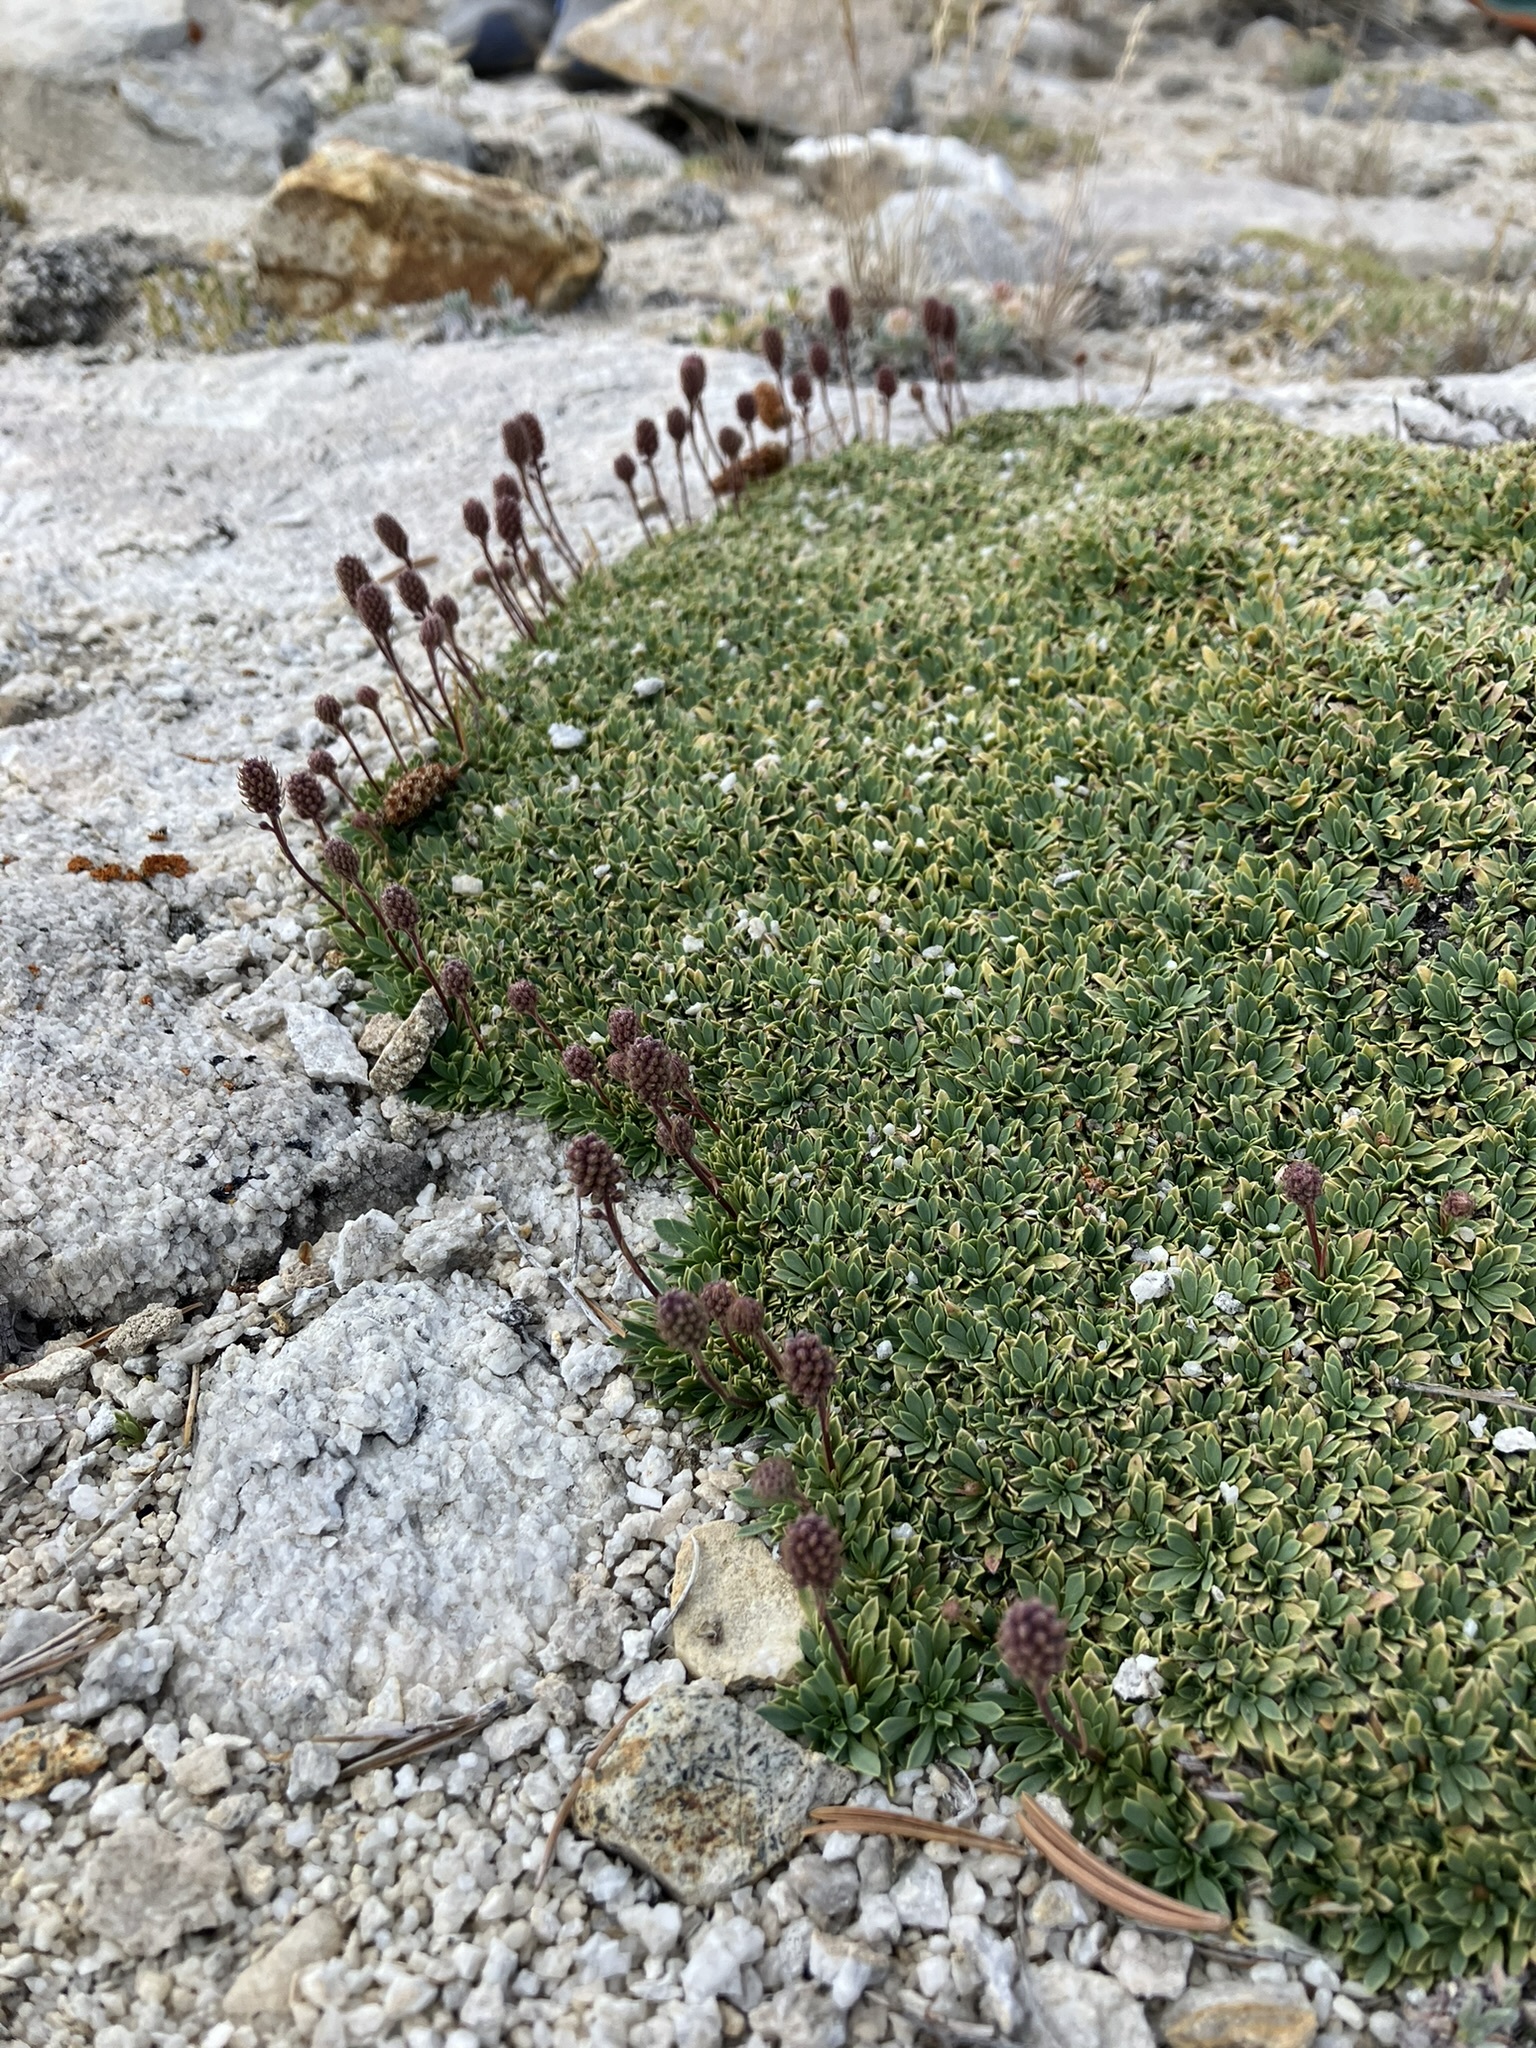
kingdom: Plantae
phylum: Tracheophyta
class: Magnoliopsida
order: Rosales
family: Rosaceae
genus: Petrophytum
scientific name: Petrophytum caespitosum
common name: Mat rockspirea
